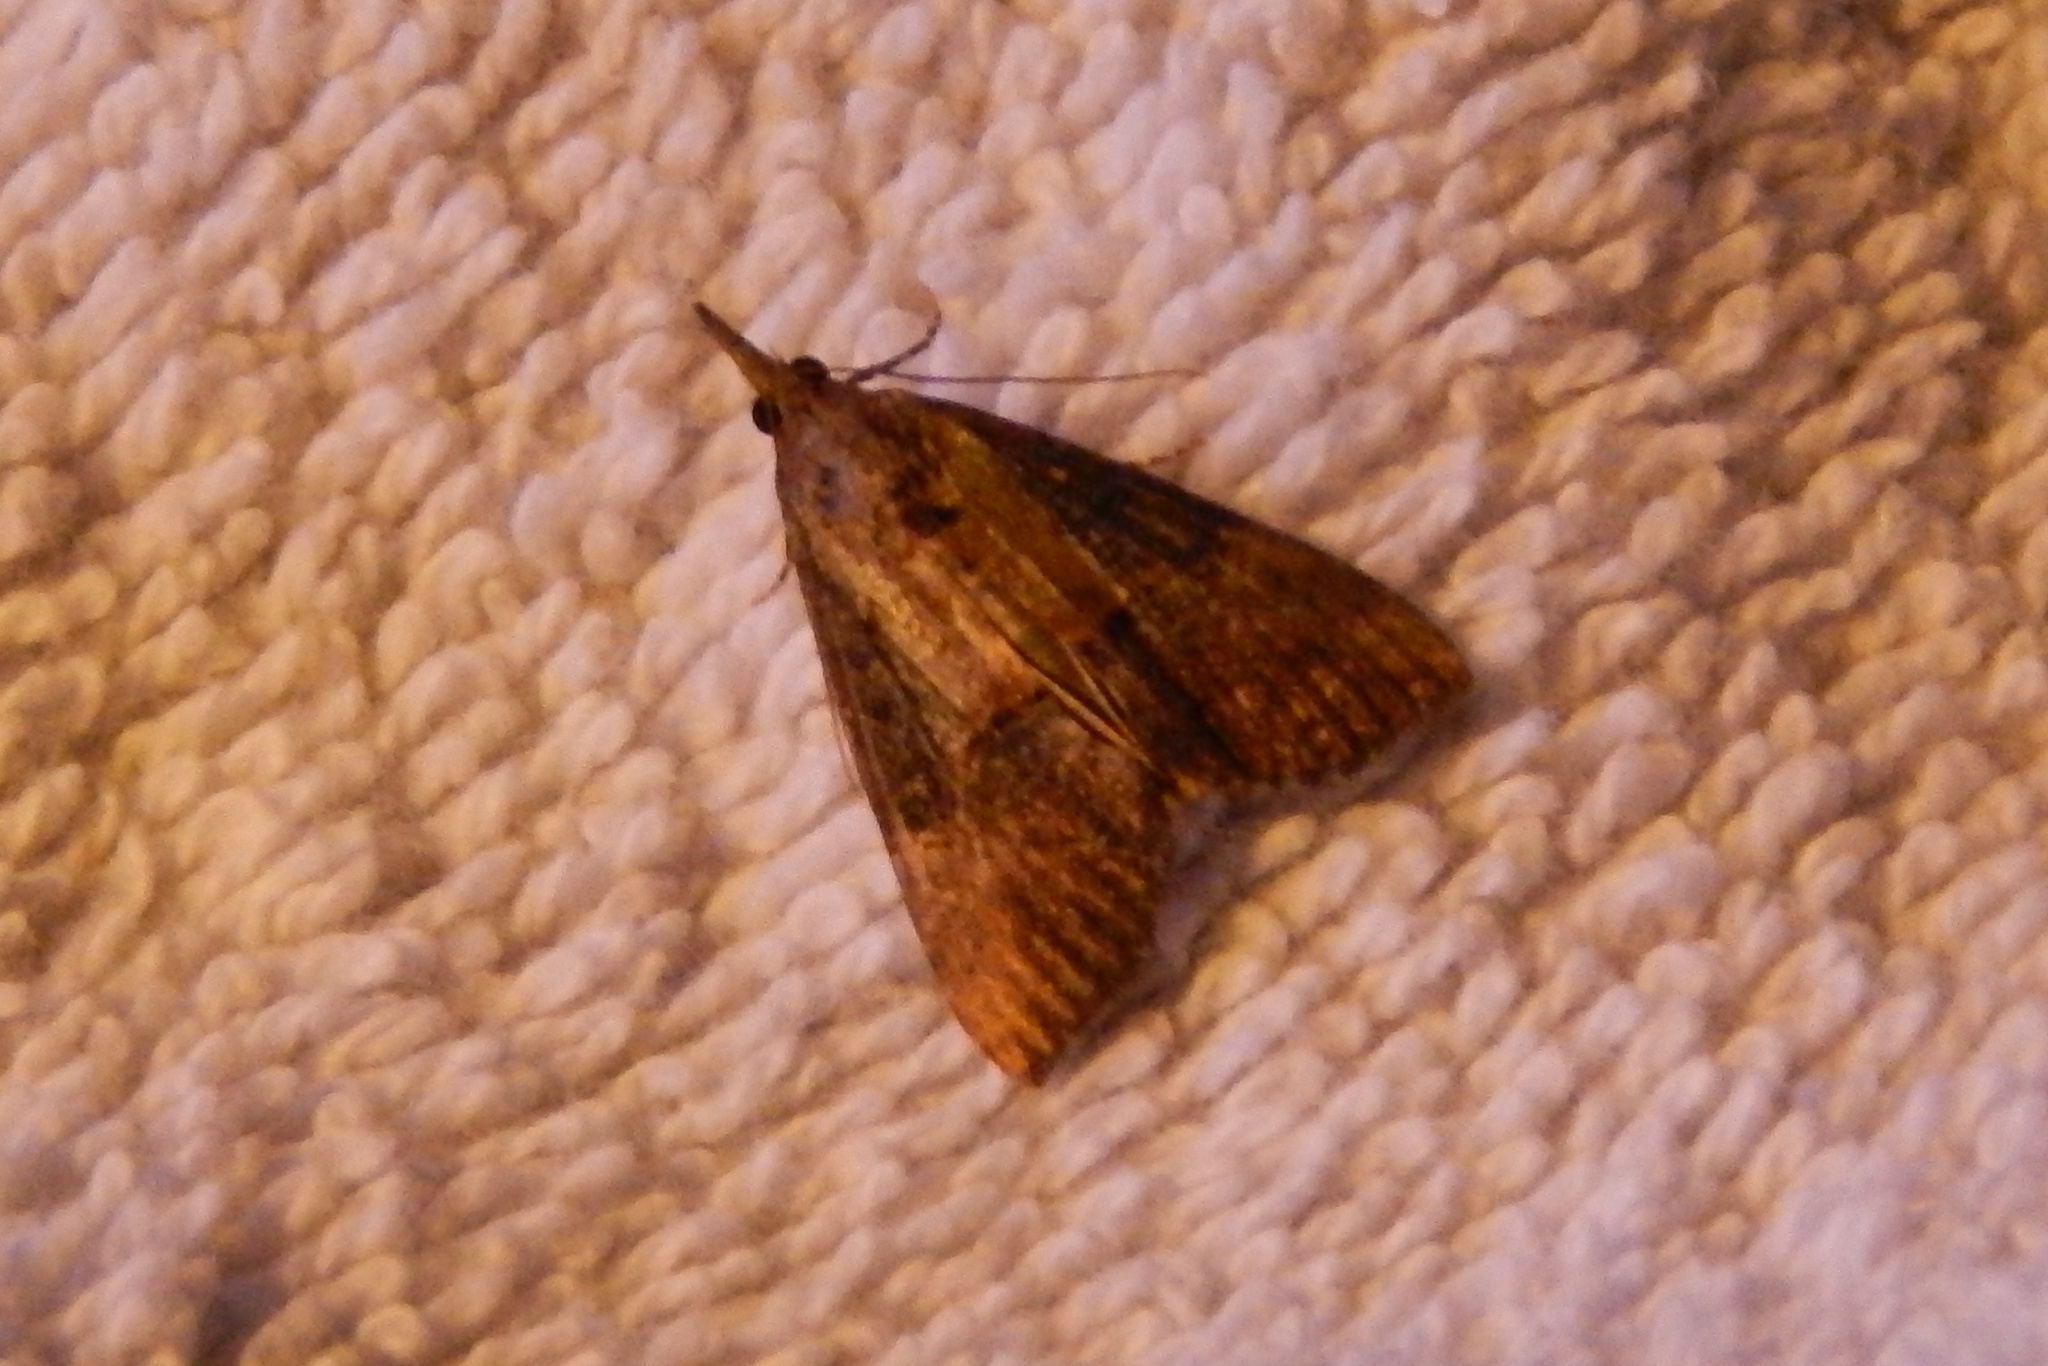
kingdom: Animalia
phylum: Arthropoda
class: Insecta
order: Lepidoptera
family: Erebidae
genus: Hypena
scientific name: Hypena scabra
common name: Green cloverworm
